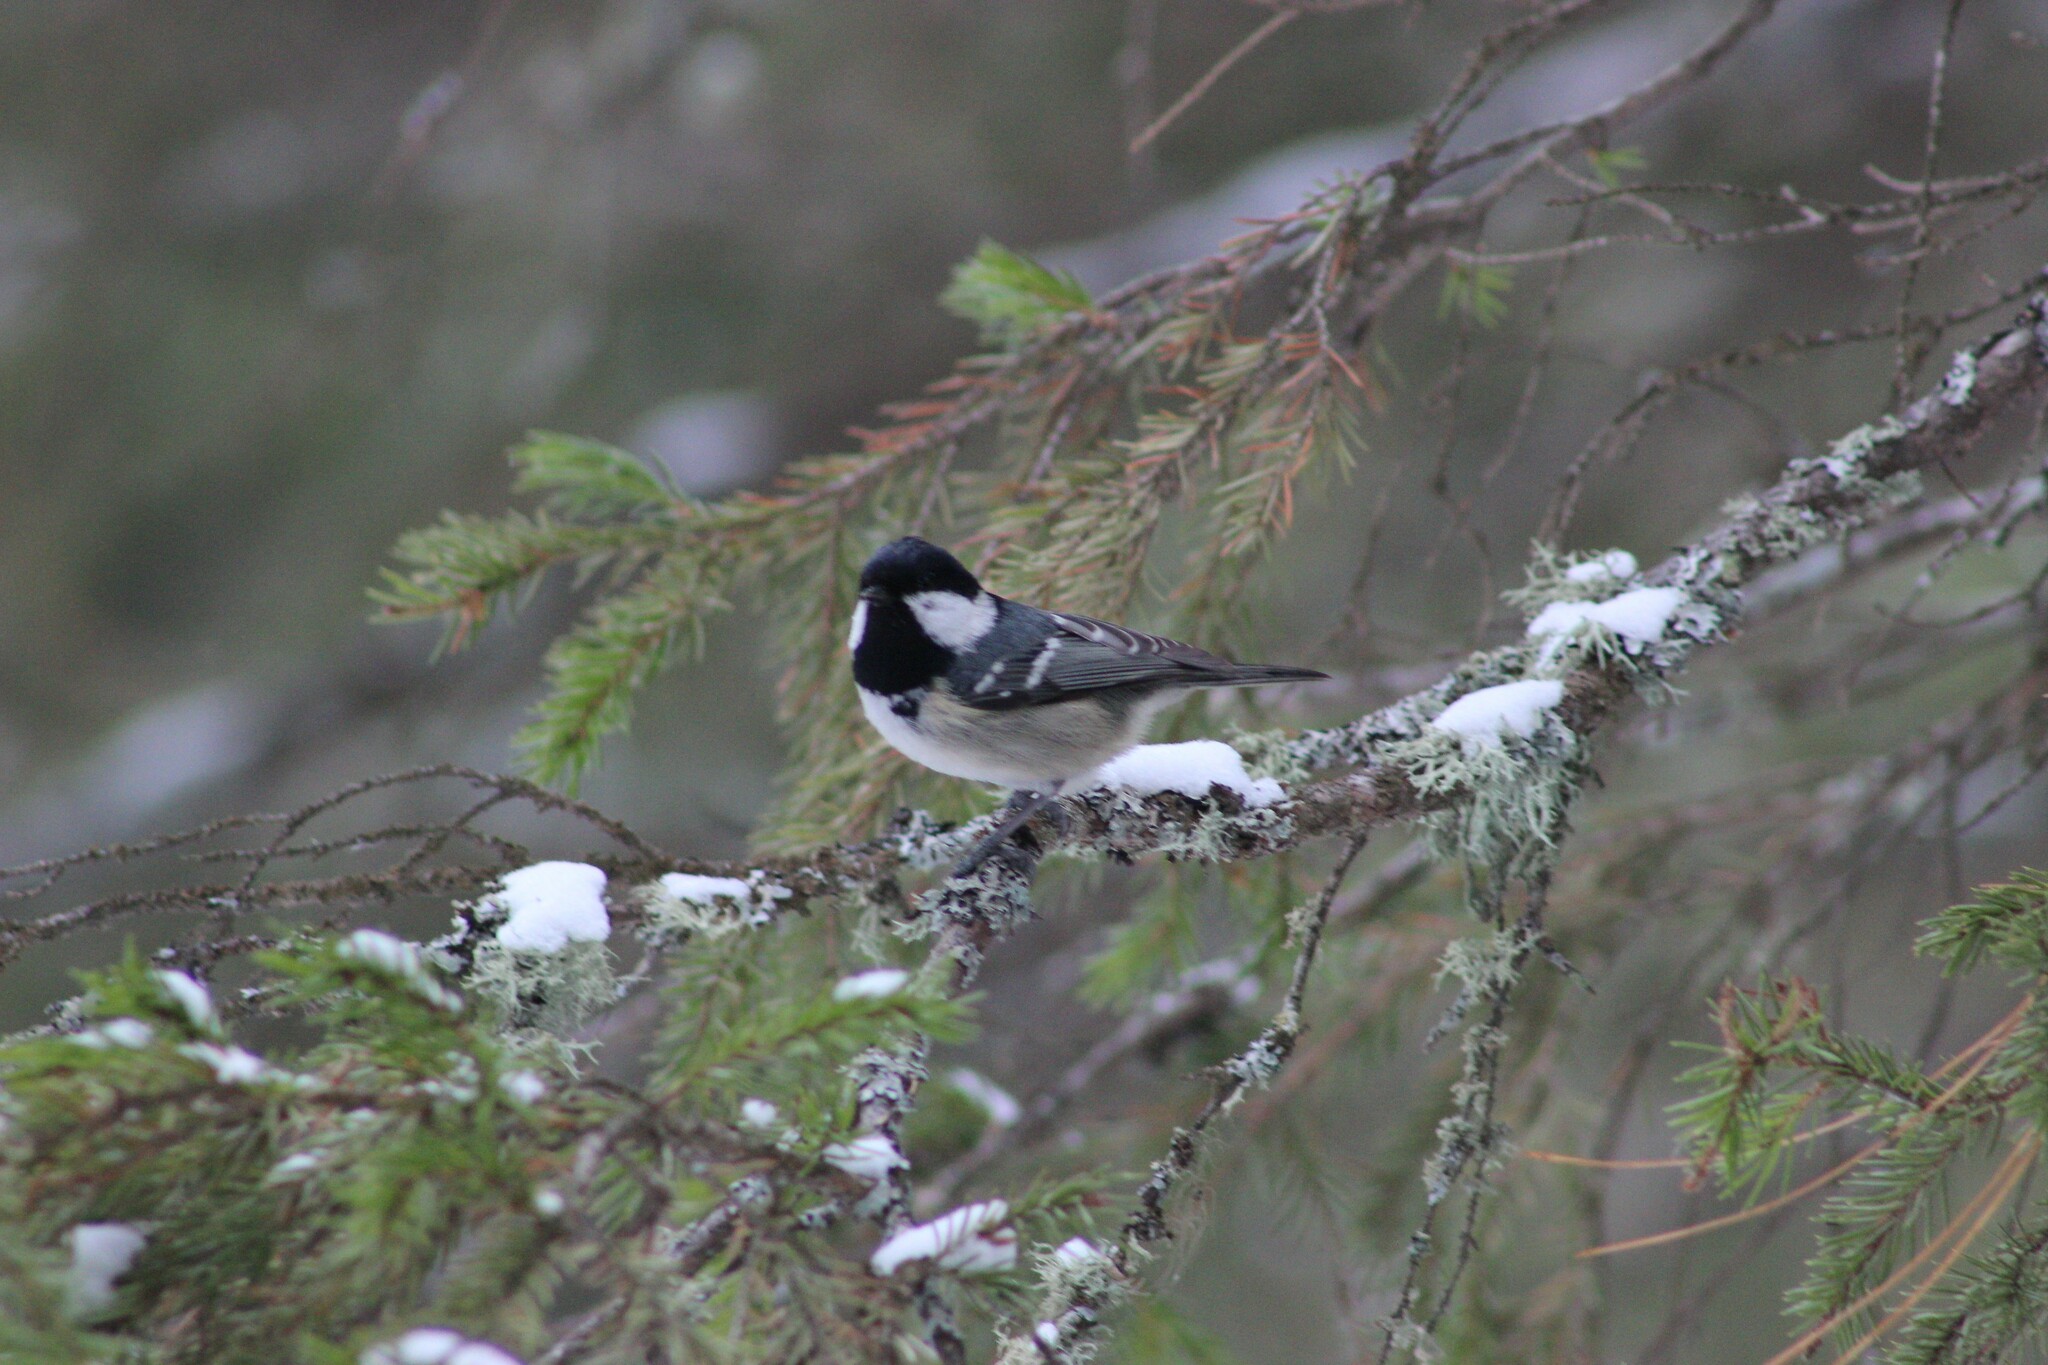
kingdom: Animalia
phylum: Chordata
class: Aves
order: Passeriformes
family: Paridae
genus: Periparus
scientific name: Periparus ater
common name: Coal tit
